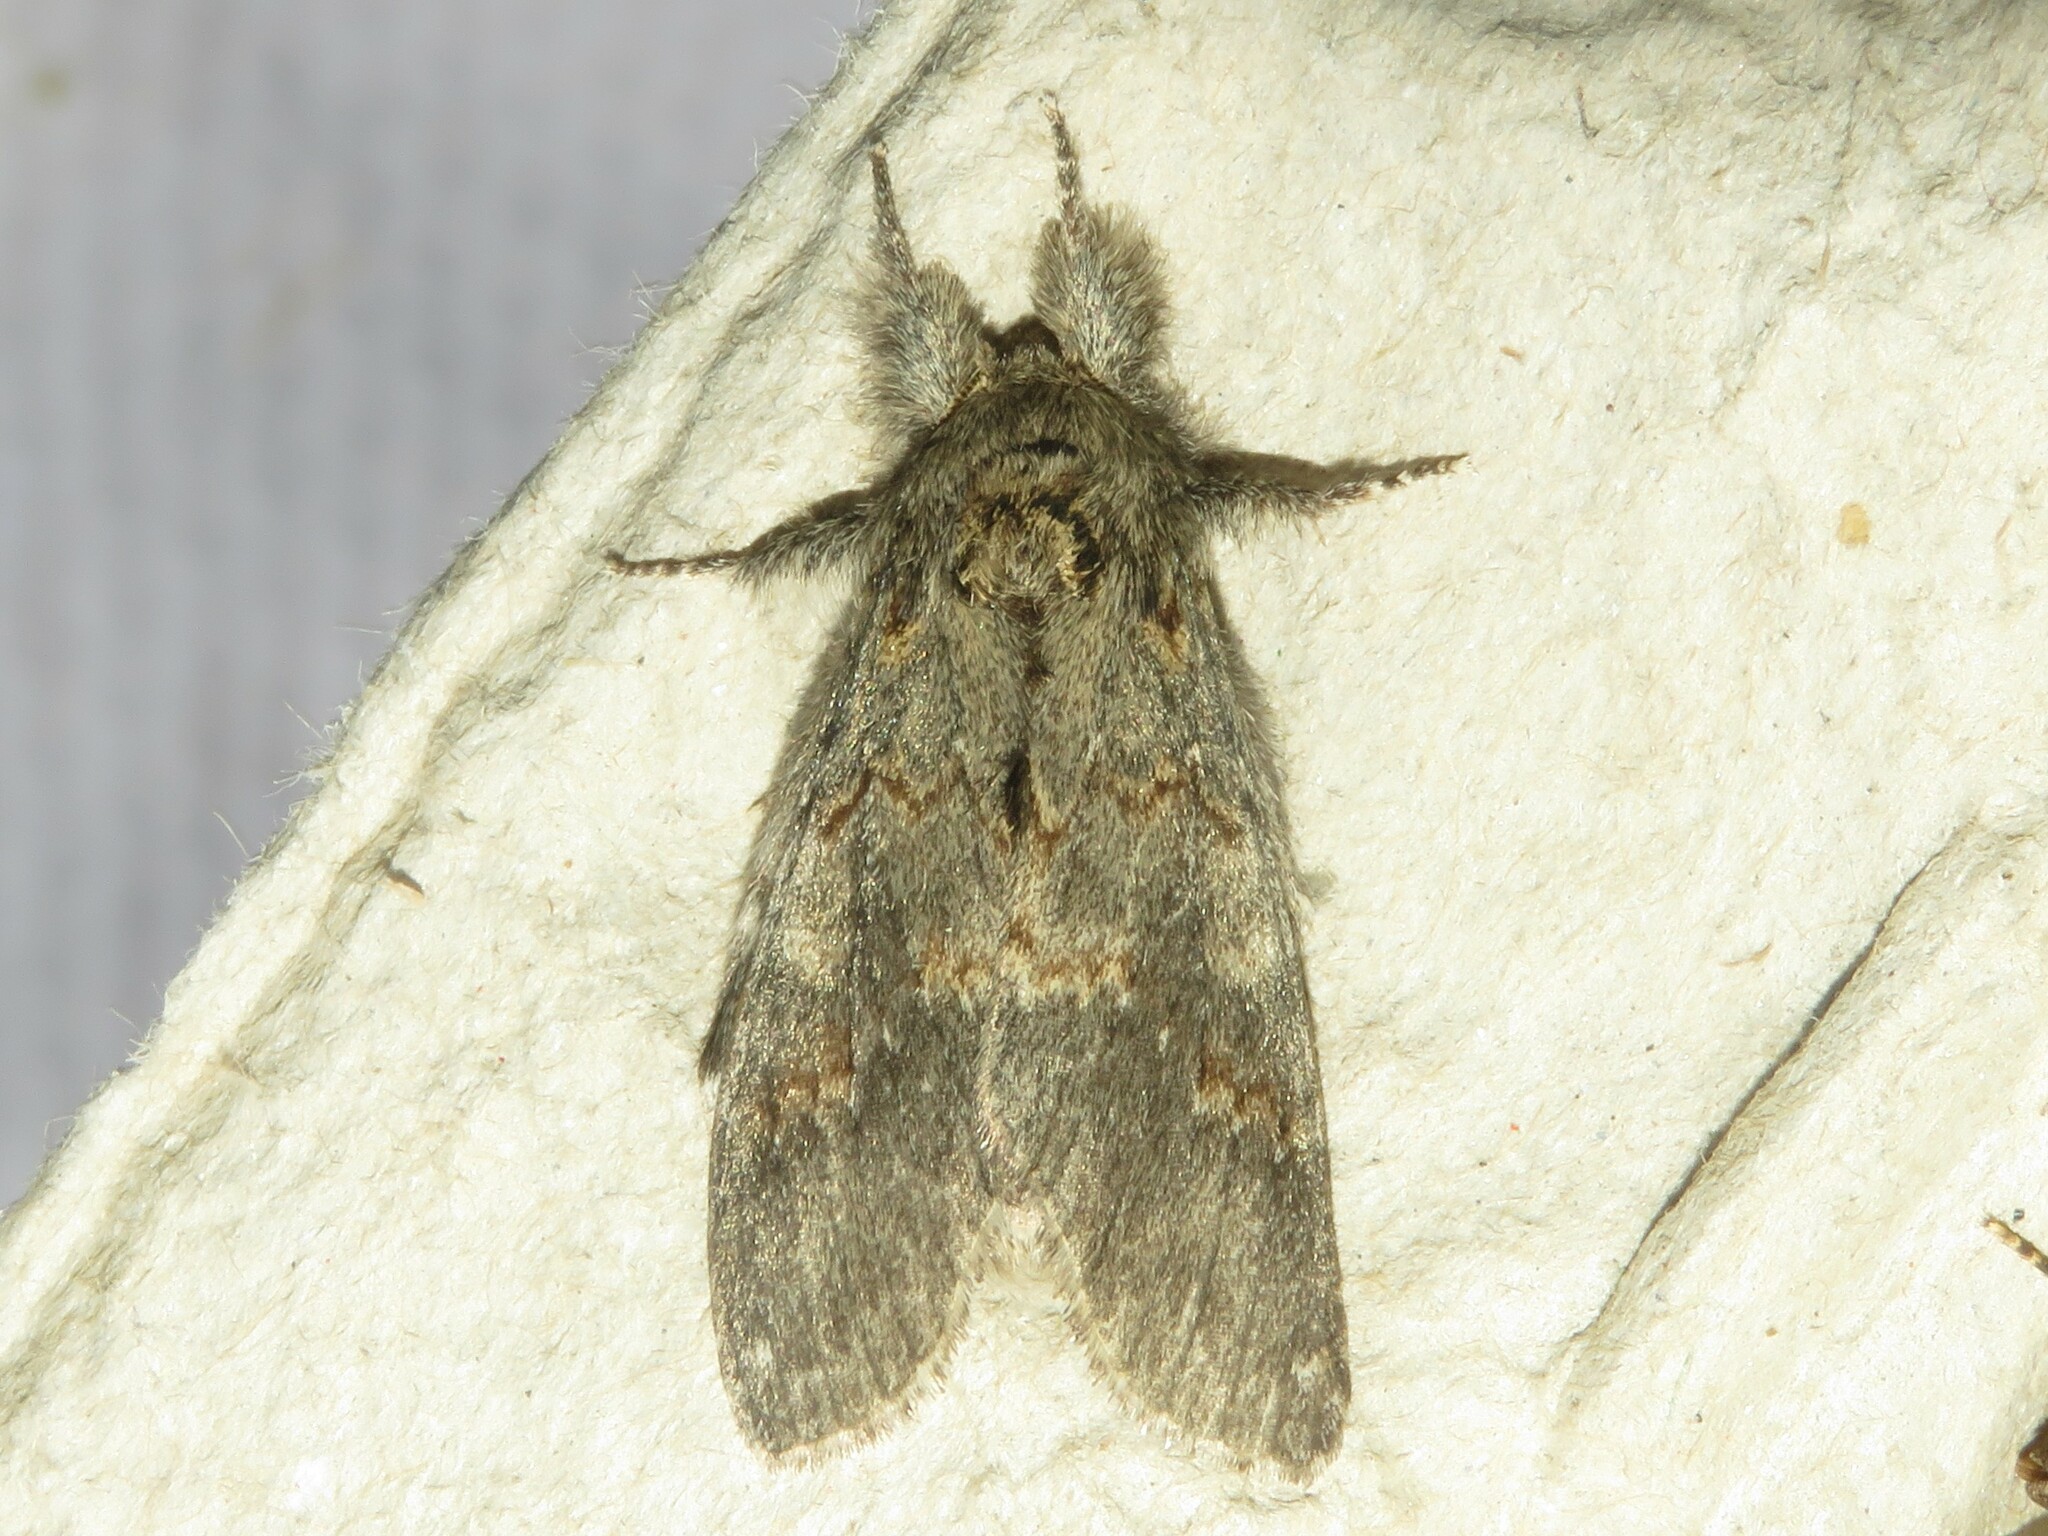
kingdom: Animalia
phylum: Arthropoda
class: Insecta
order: Lepidoptera
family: Notodontidae
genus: Peridea
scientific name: Peridea angulosa
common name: Angulose prominent
